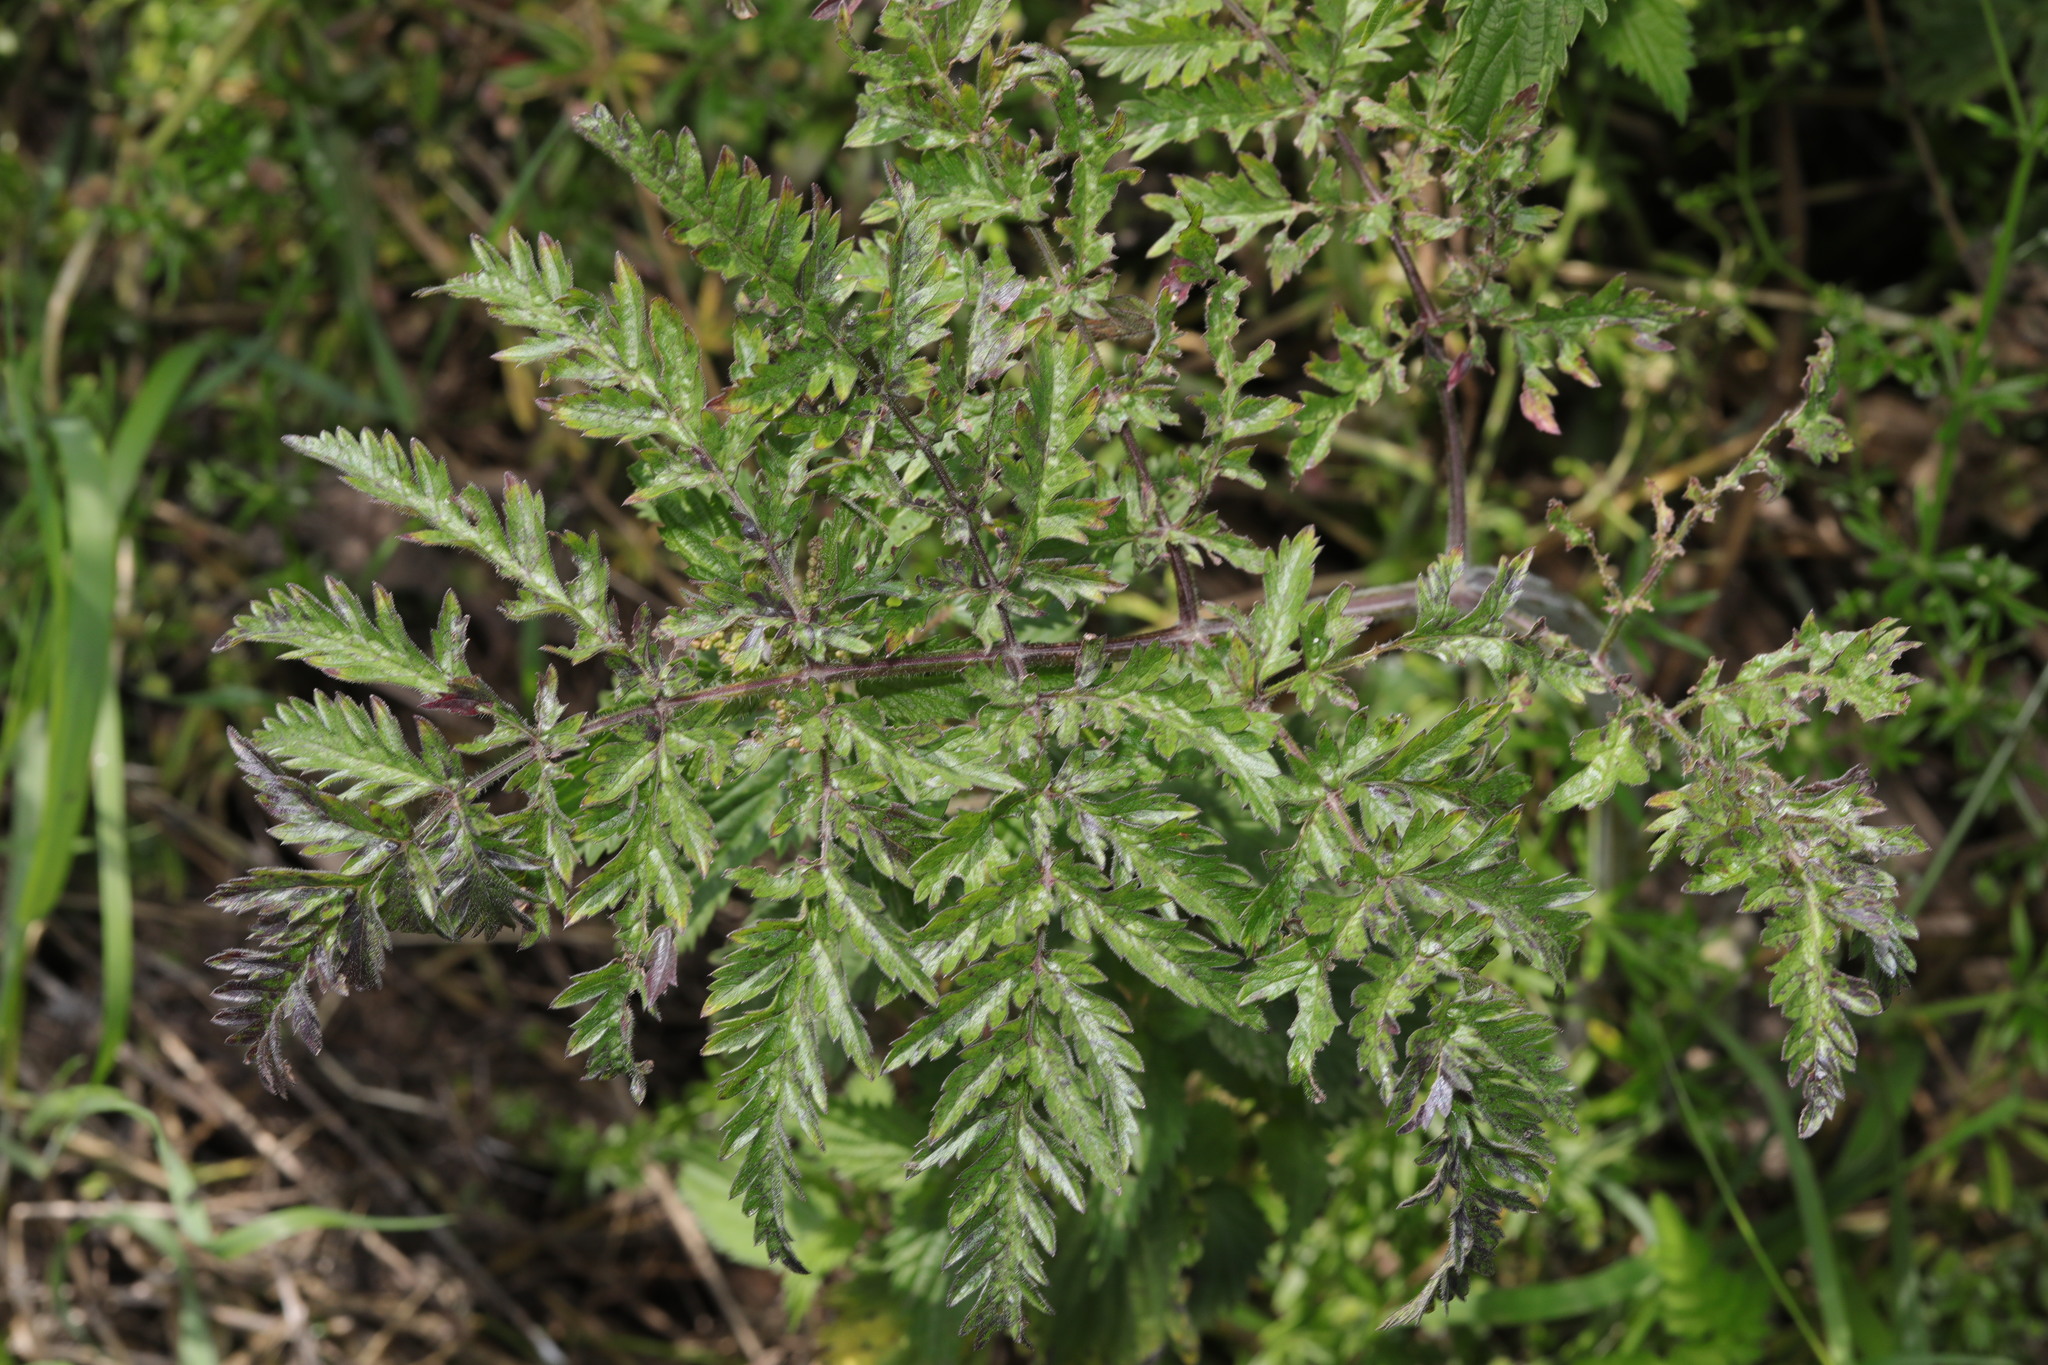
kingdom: Plantae
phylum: Tracheophyta
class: Magnoliopsida
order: Apiales
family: Apiaceae
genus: Anthriscus
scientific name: Anthriscus sylvestris
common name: Cow parsley
